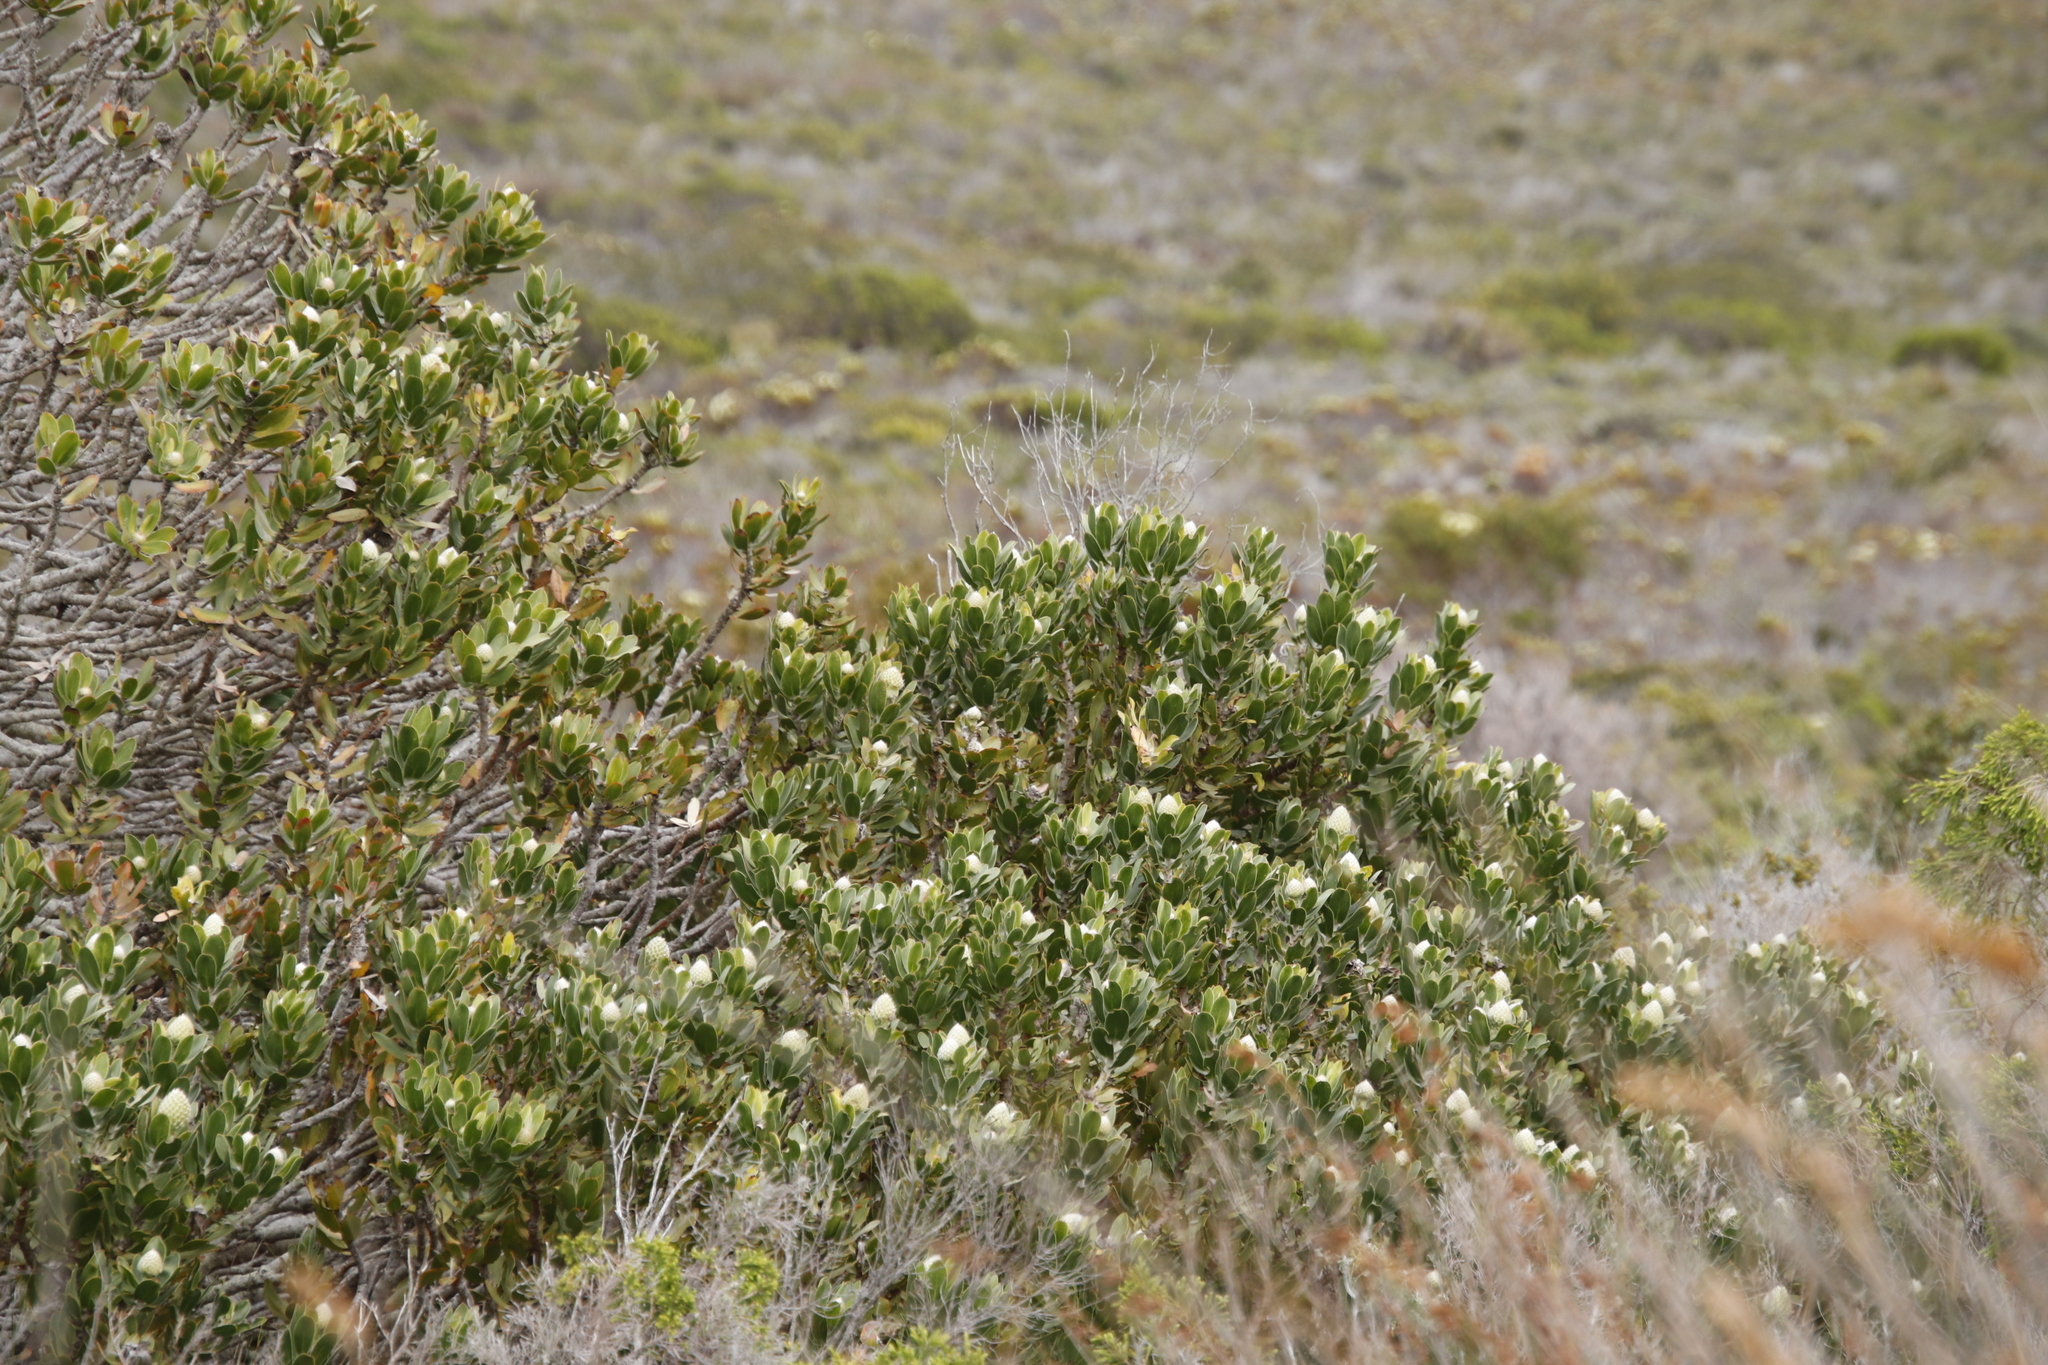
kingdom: Plantae
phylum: Tracheophyta
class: Magnoliopsida
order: Proteales
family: Proteaceae
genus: Leucospermum
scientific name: Leucospermum conocarpodendron
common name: Tree pincushion
